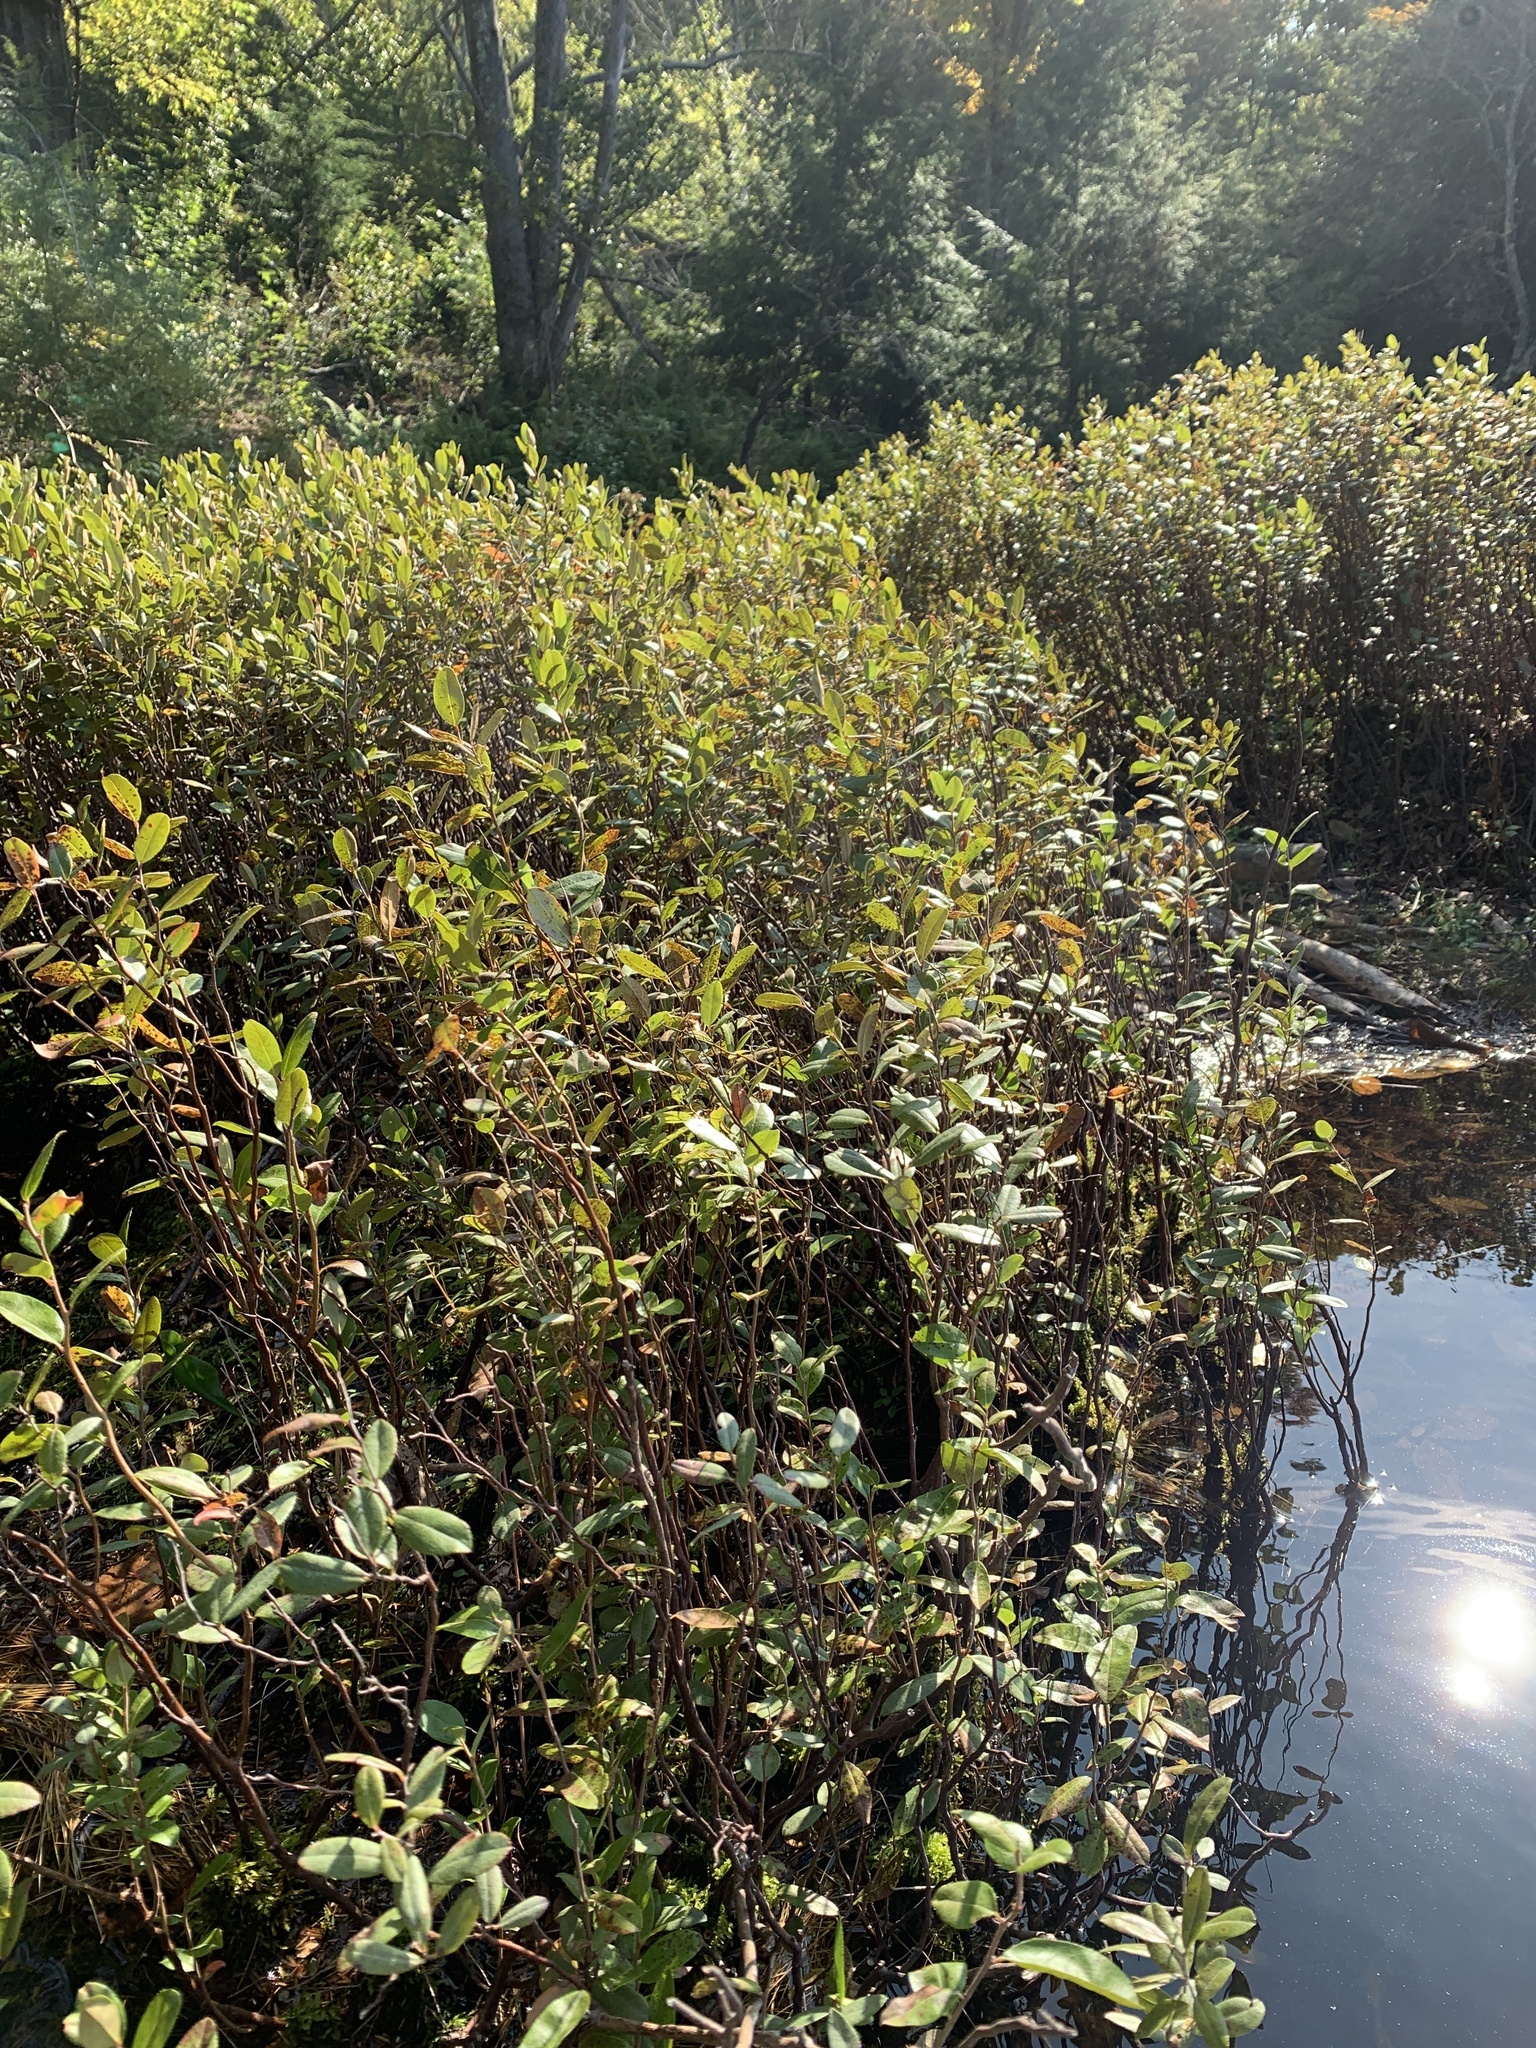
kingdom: Plantae
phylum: Tracheophyta
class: Magnoliopsida
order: Ericales
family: Ericaceae
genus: Chamaedaphne
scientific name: Chamaedaphne calyculata
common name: Leatherleaf
